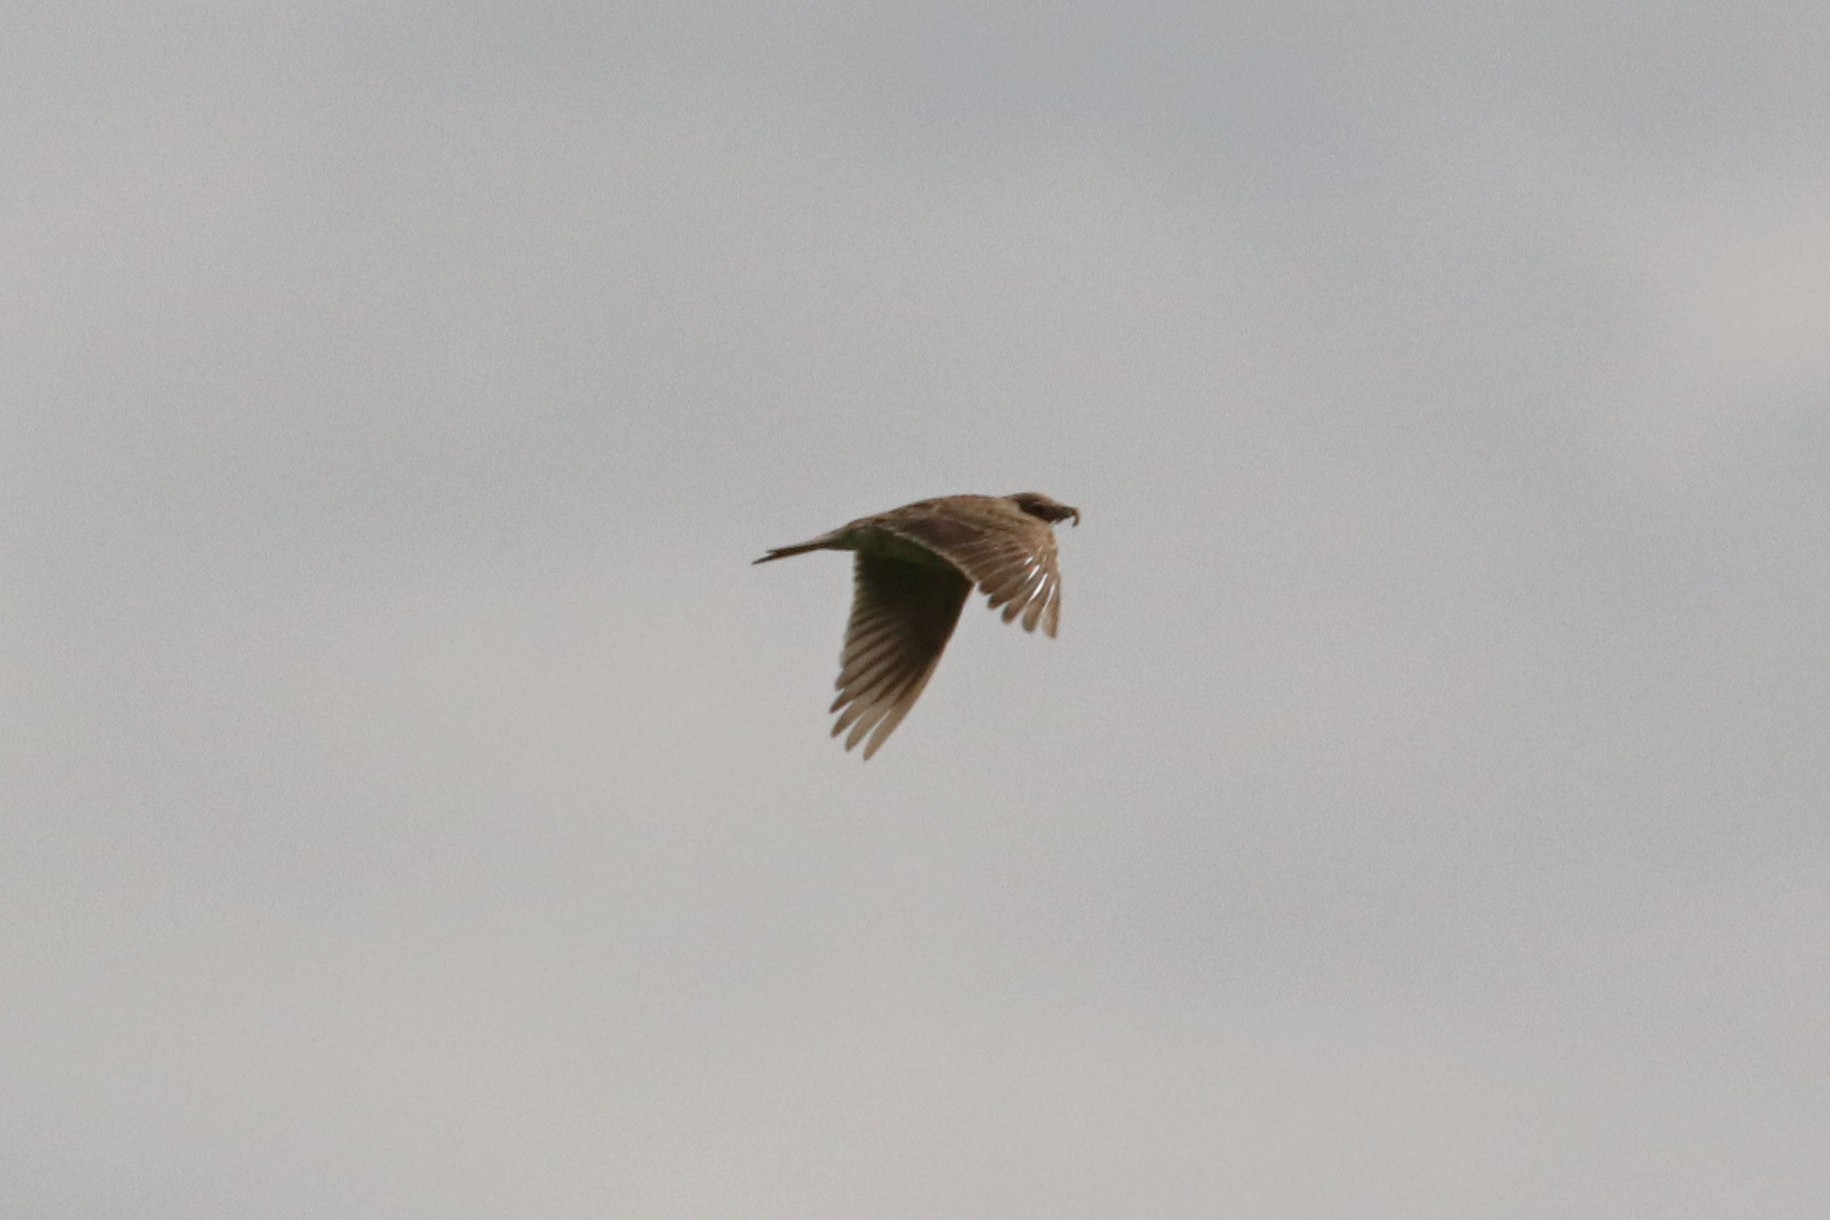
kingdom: Animalia
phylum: Chordata
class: Aves
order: Passeriformes
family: Alaudidae
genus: Alauda
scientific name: Alauda arvensis
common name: Eurasian skylark
